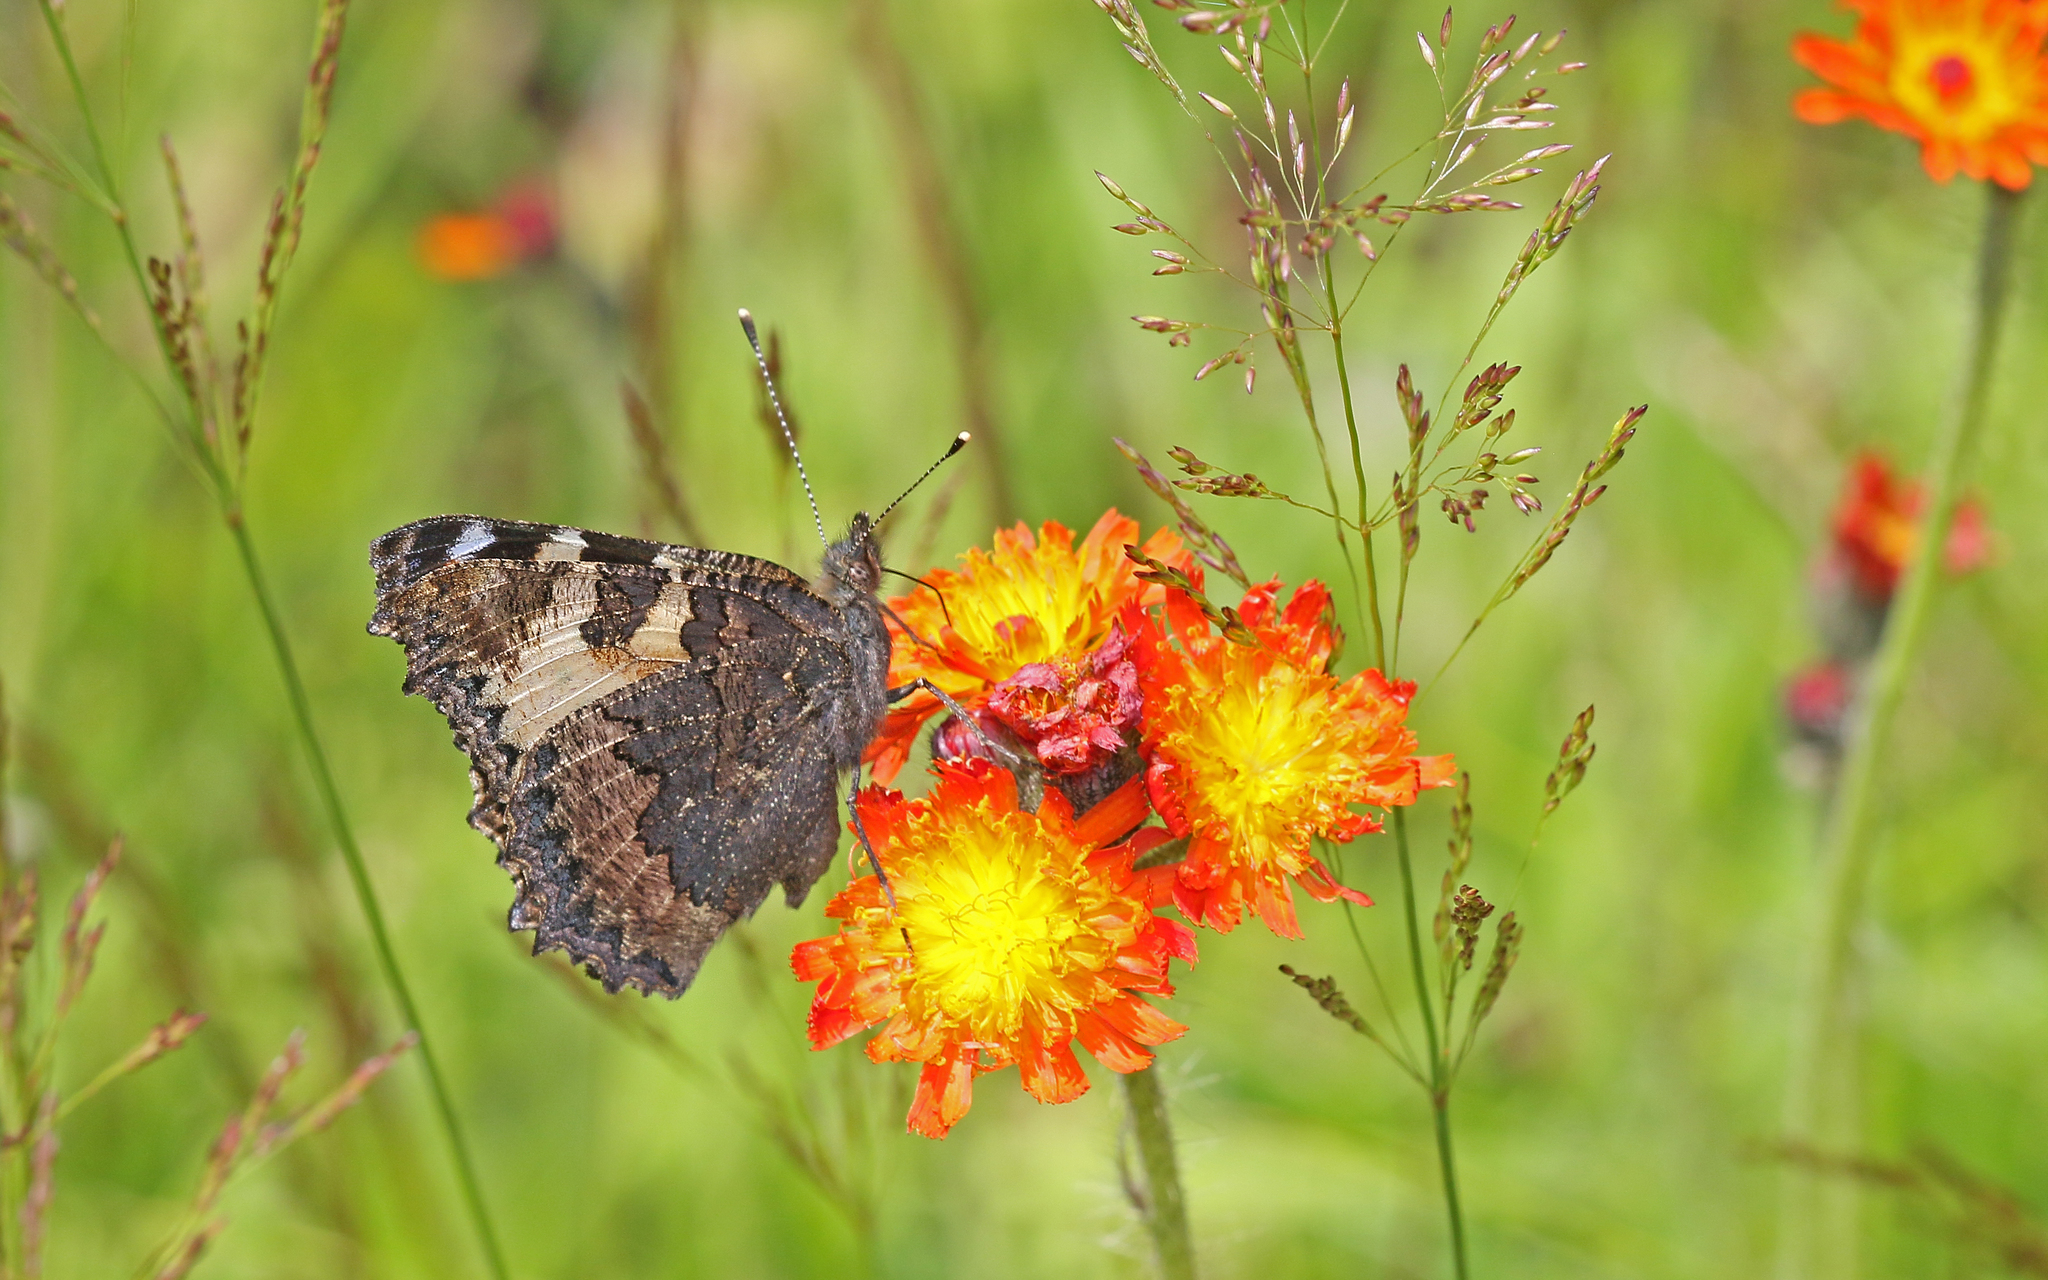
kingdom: Animalia
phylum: Arthropoda
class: Insecta
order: Lepidoptera
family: Nymphalidae
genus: Aglais
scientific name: Aglais urticae
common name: Small tortoiseshell
